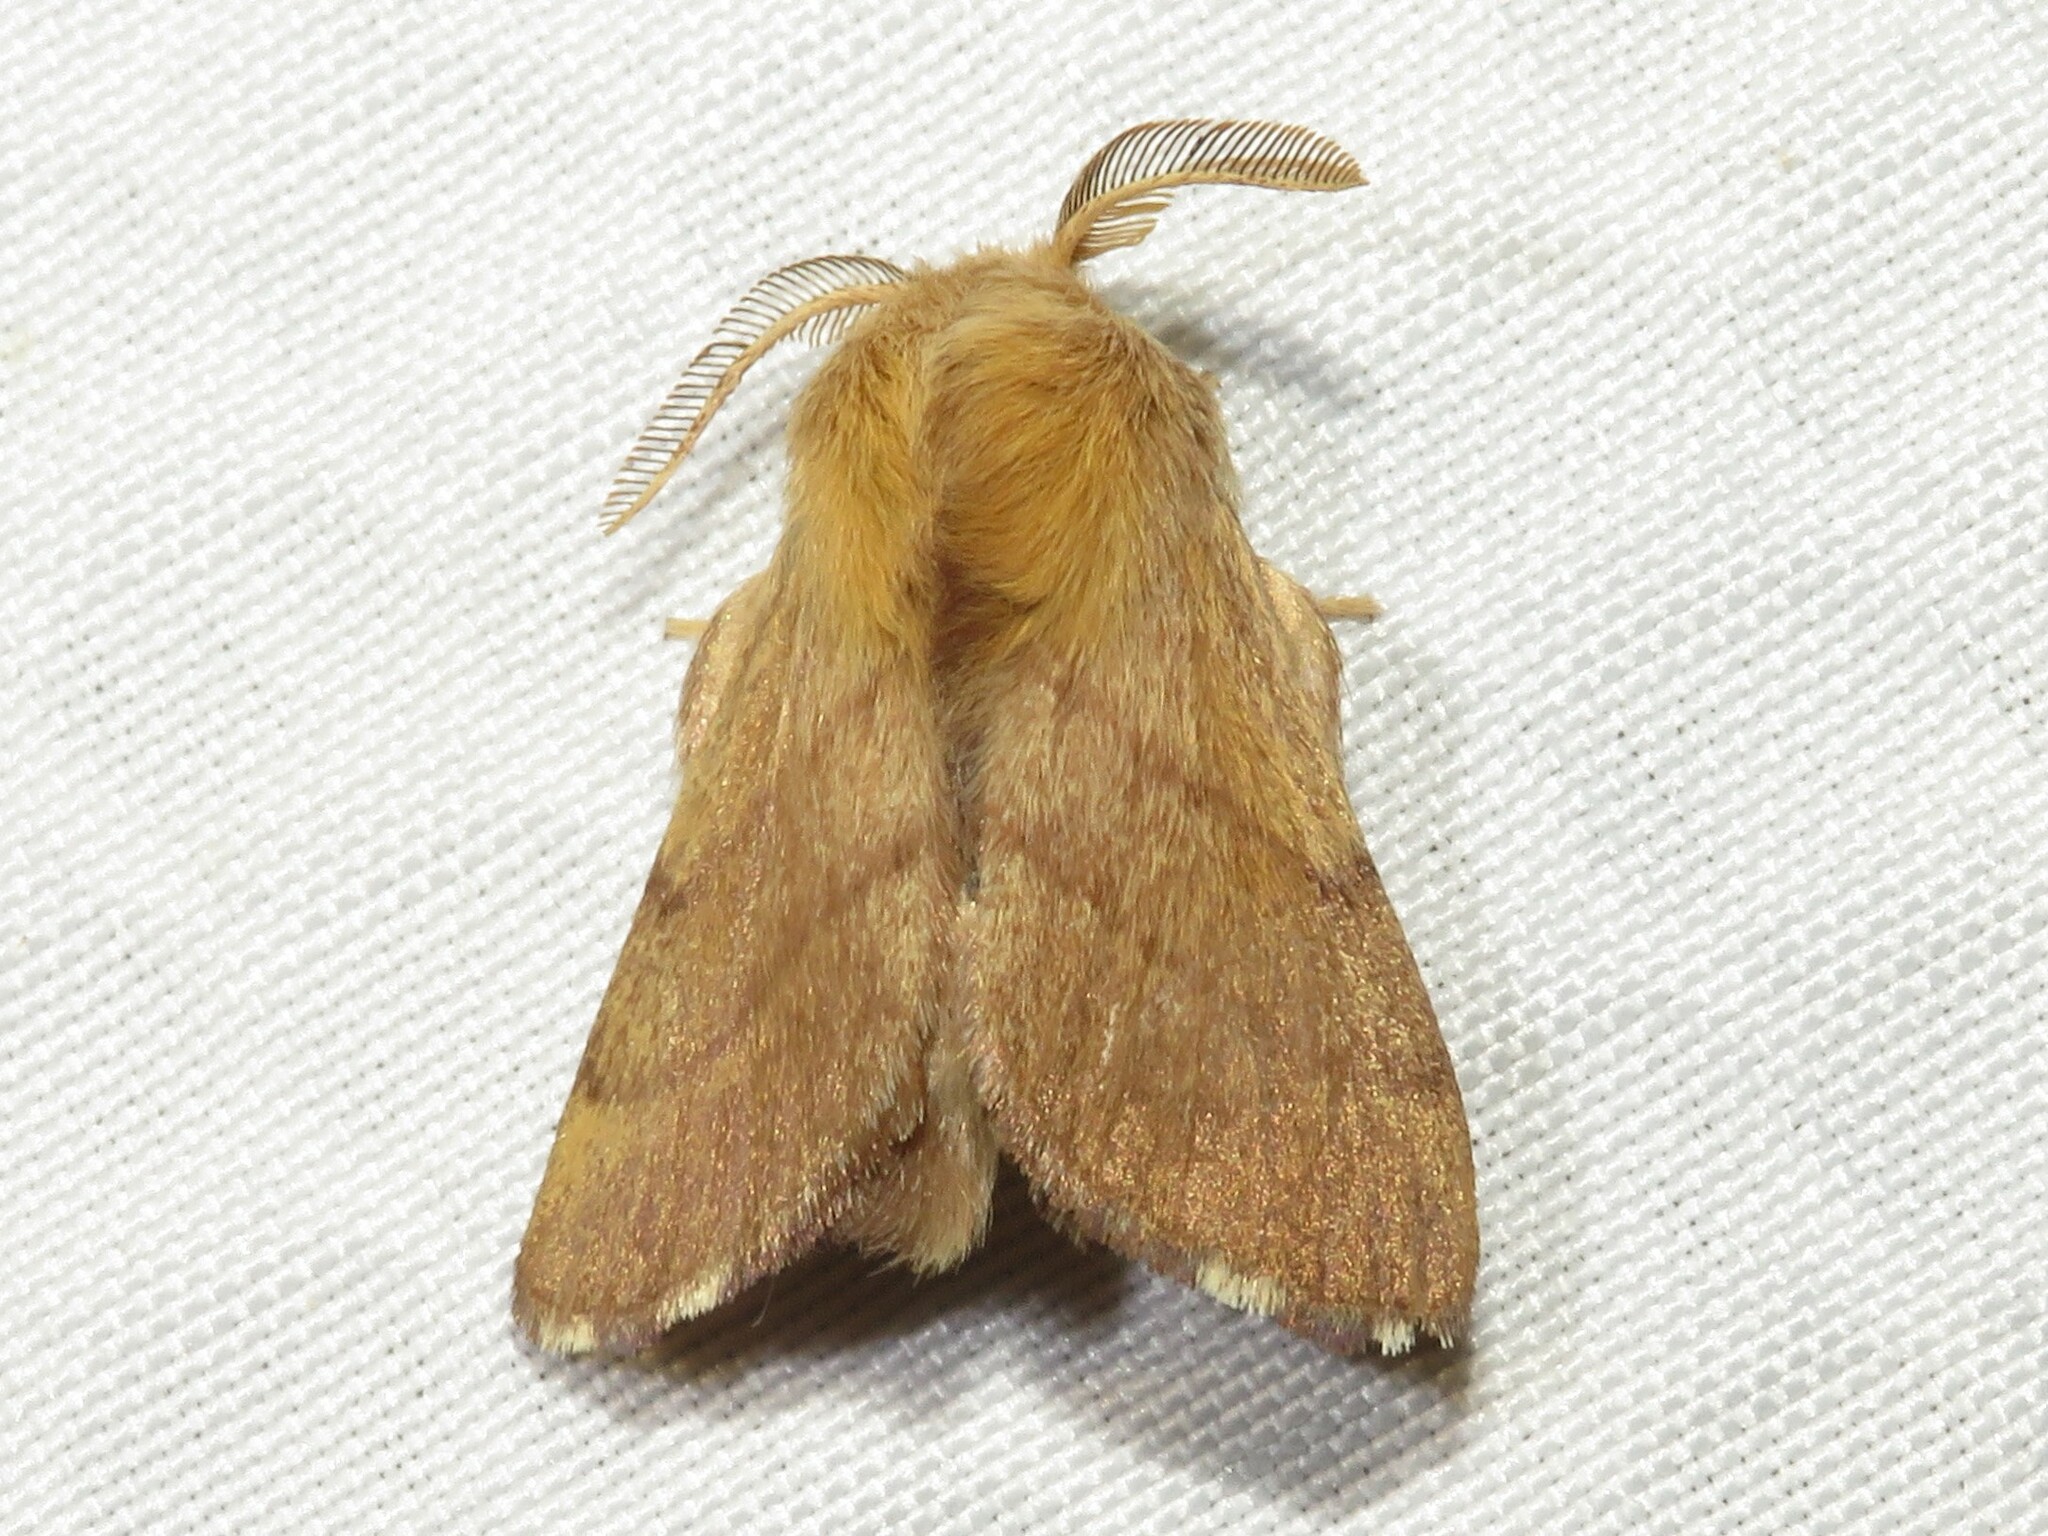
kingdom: Animalia
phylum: Arthropoda
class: Insecta
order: Lepidoptera
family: Lasiocampidae
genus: Malacosoma
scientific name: Malacosoma disstria
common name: Forest tent caterpillar
